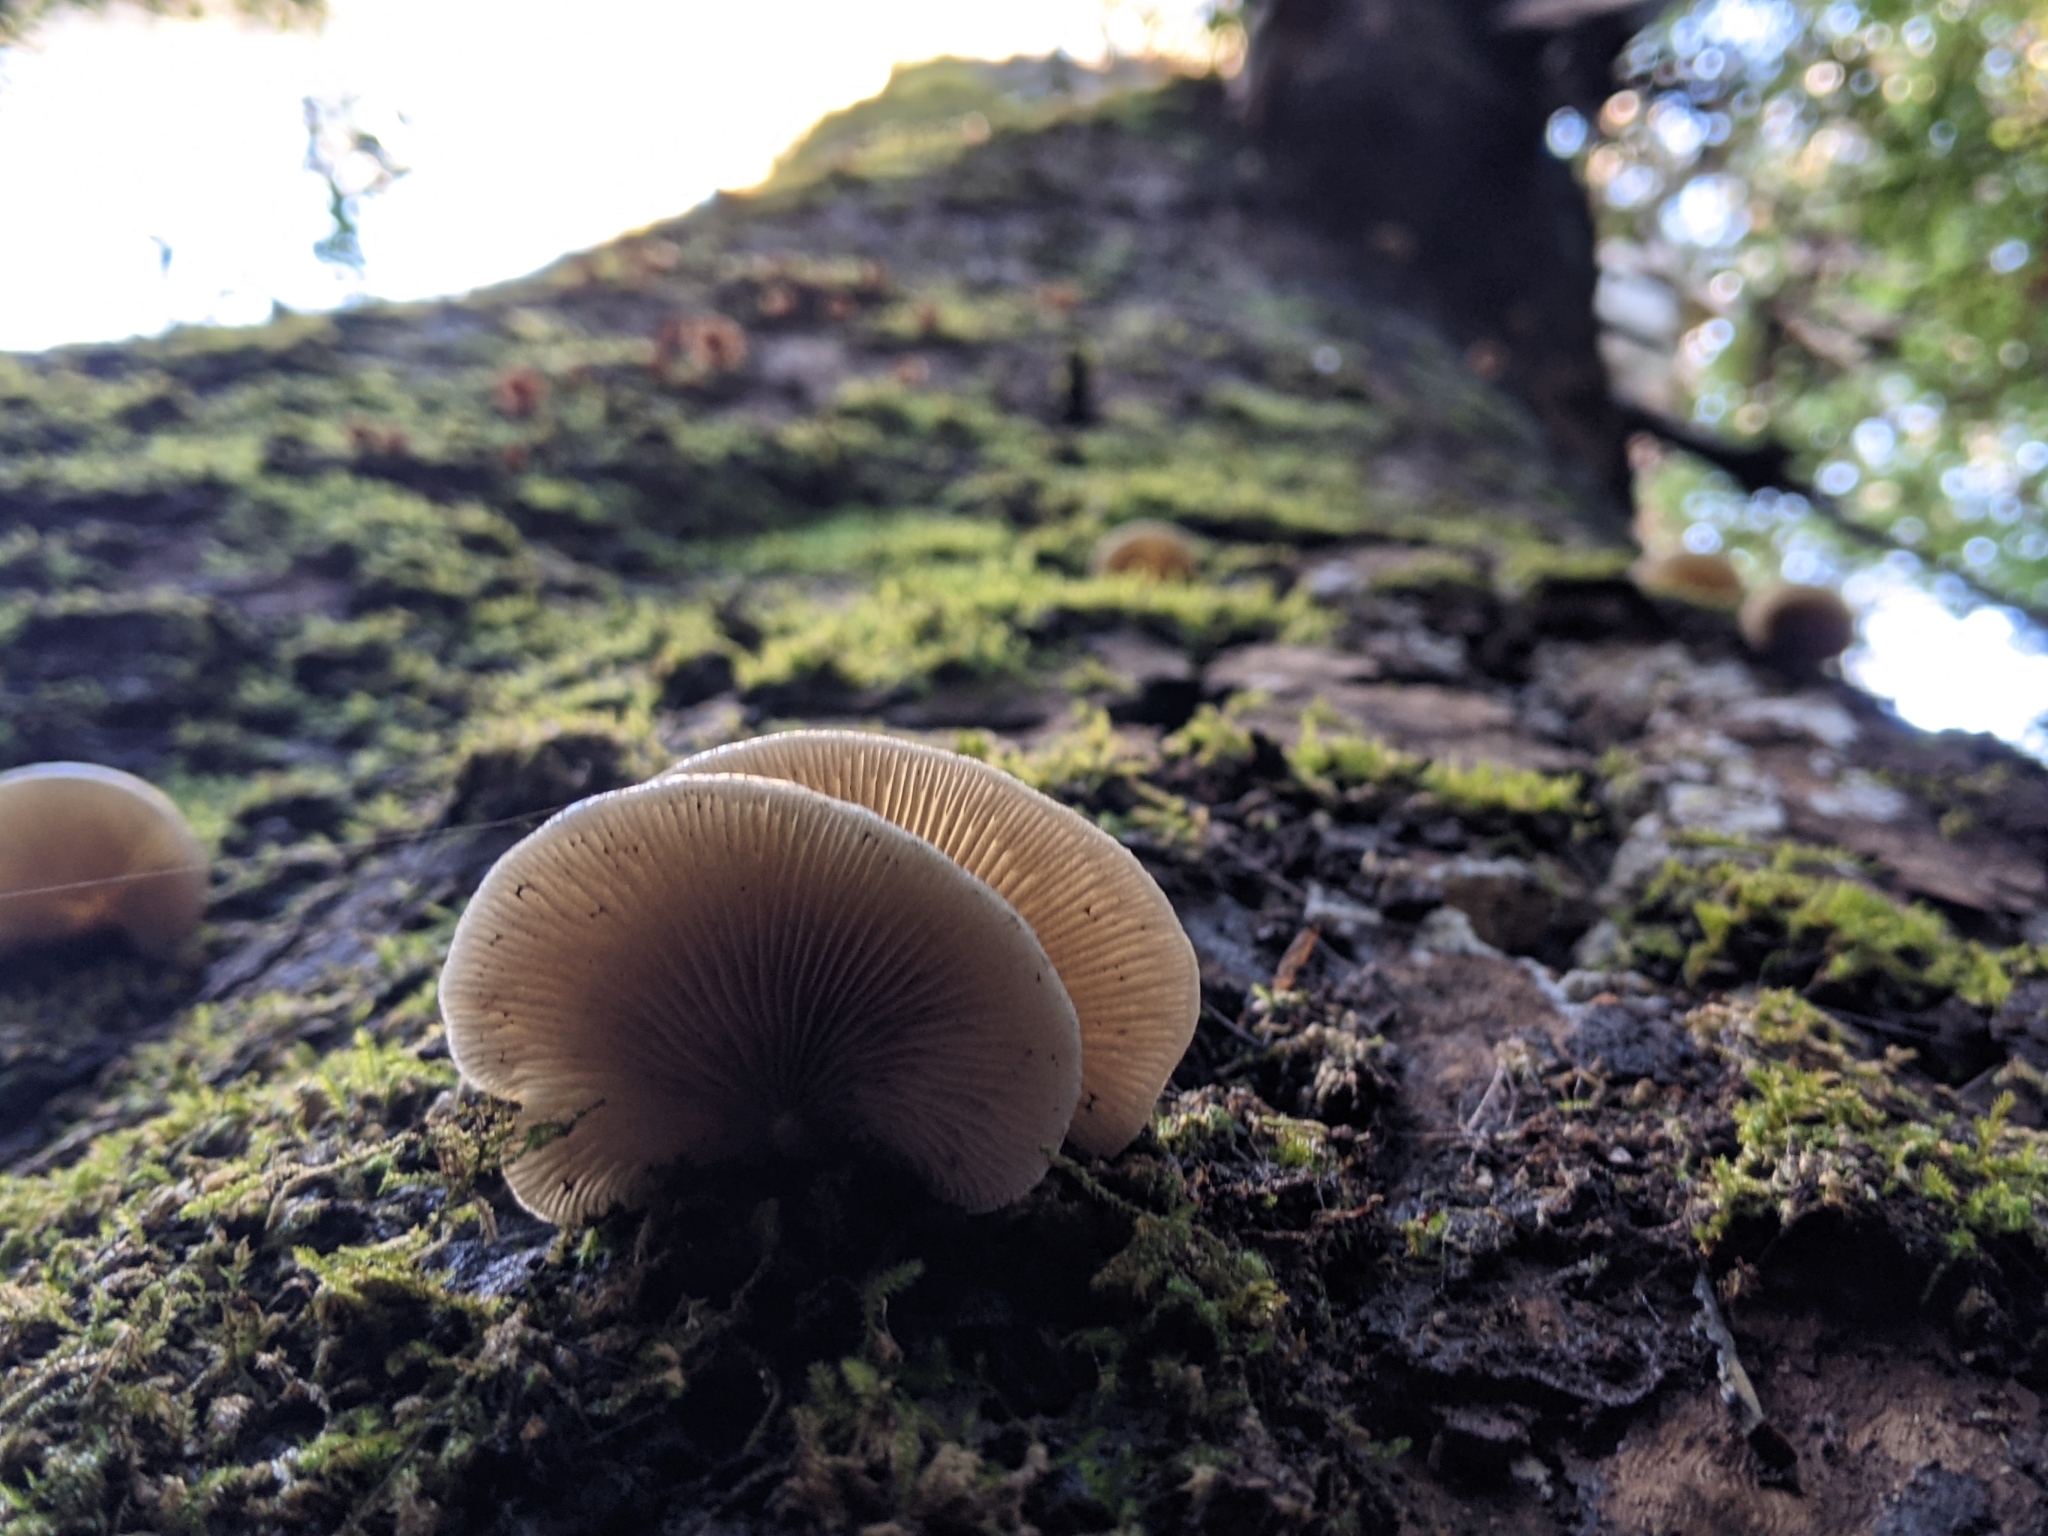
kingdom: Fungi
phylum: Basidiomycota
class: Agaricomycetes
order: Agaricales
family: Crepidotaceae
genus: Crepidotus
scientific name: Crepidotus mollis
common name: Peeling oysterling
